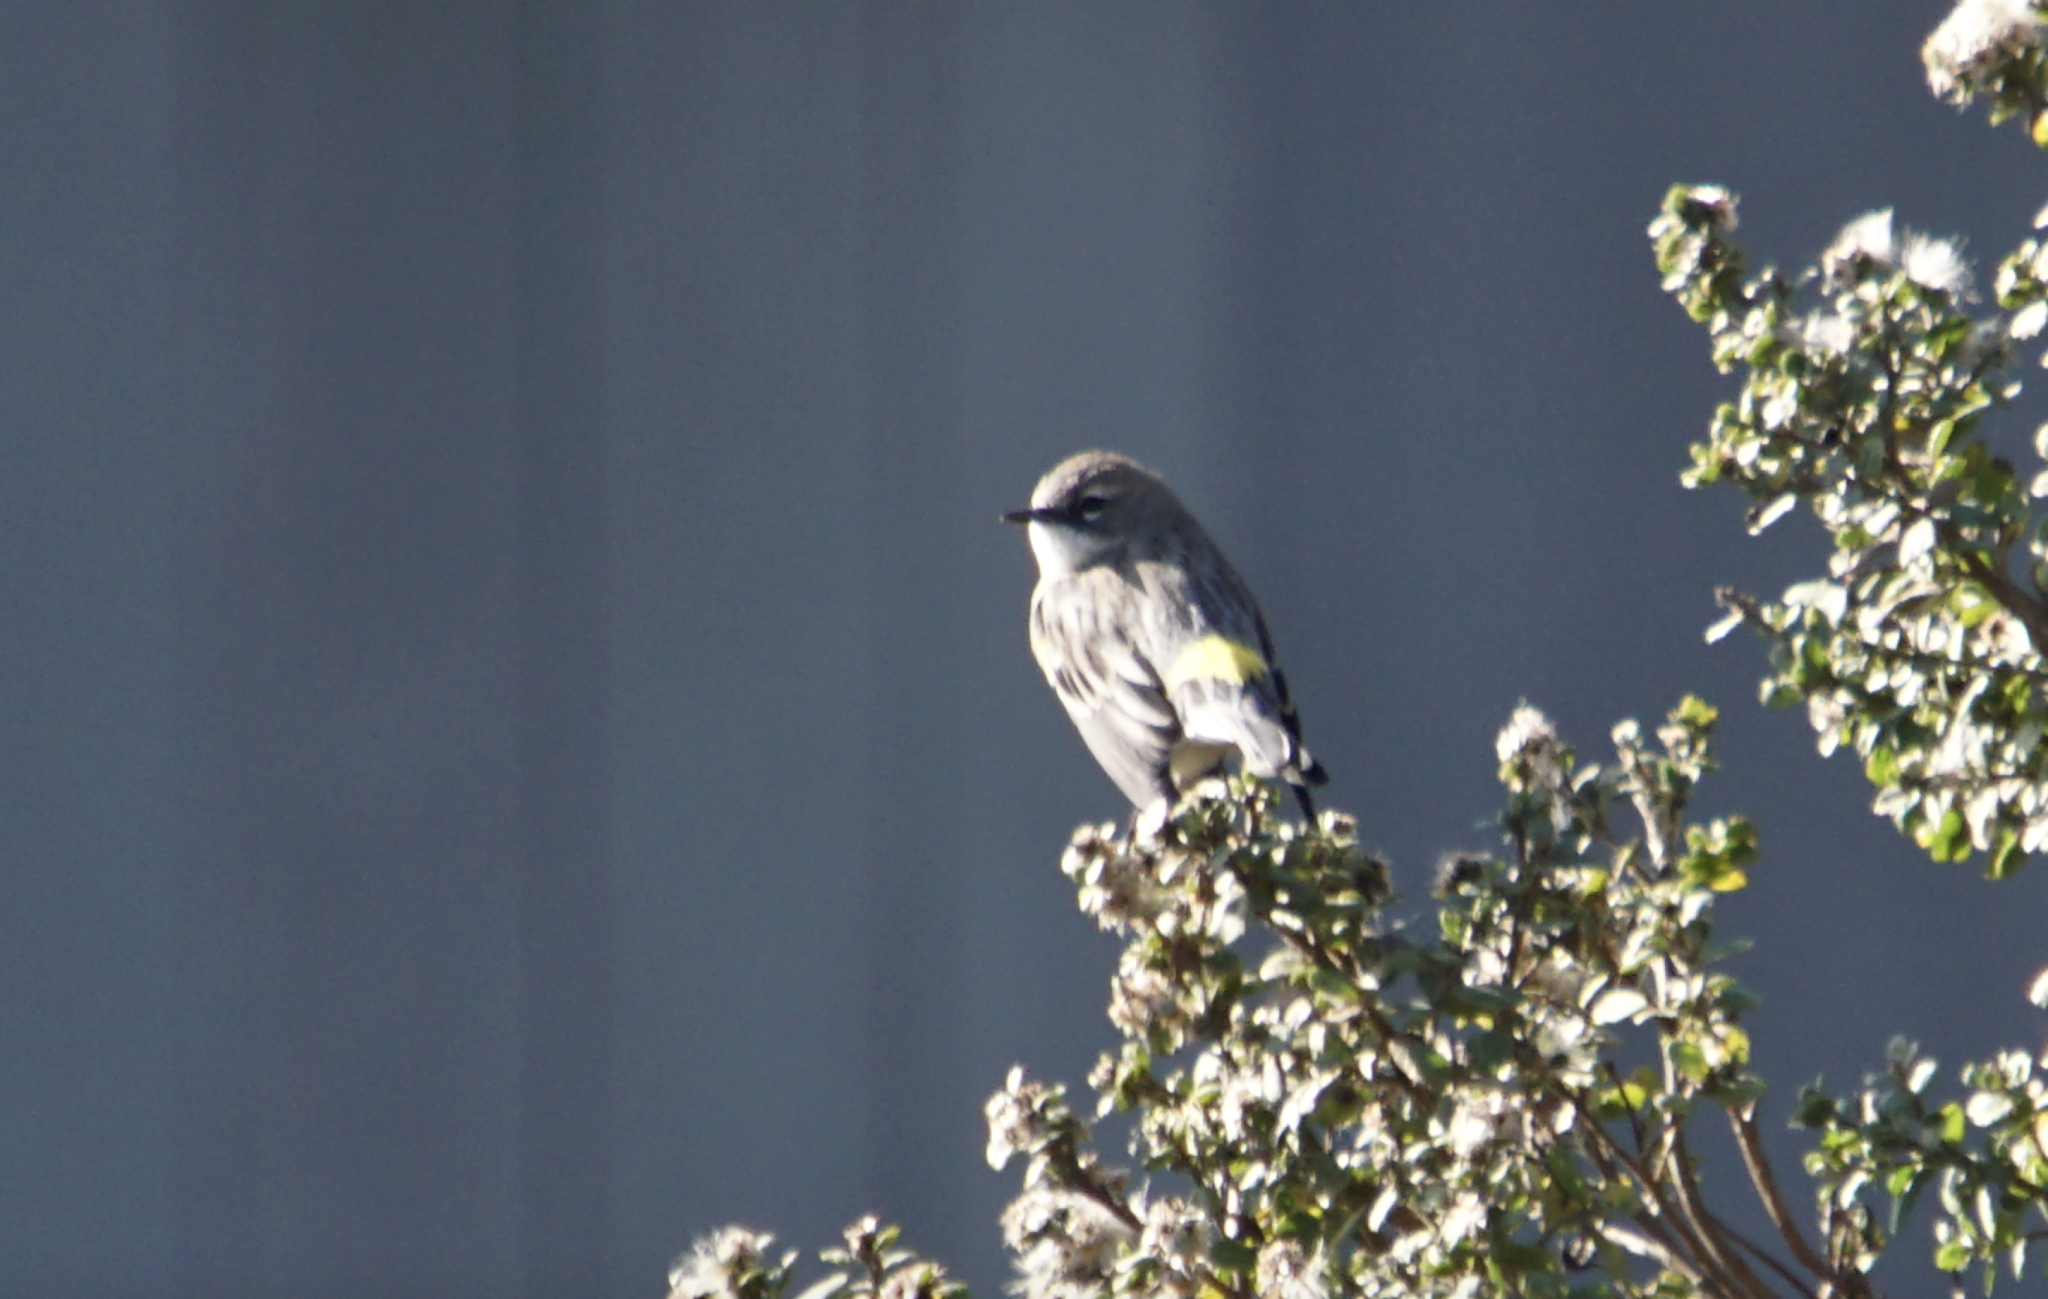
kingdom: Animalia
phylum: Chordata
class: Aves
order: Passeriformes
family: Parulidae
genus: Setophaga
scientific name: Setophaga coronata
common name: Myrtle warbler
